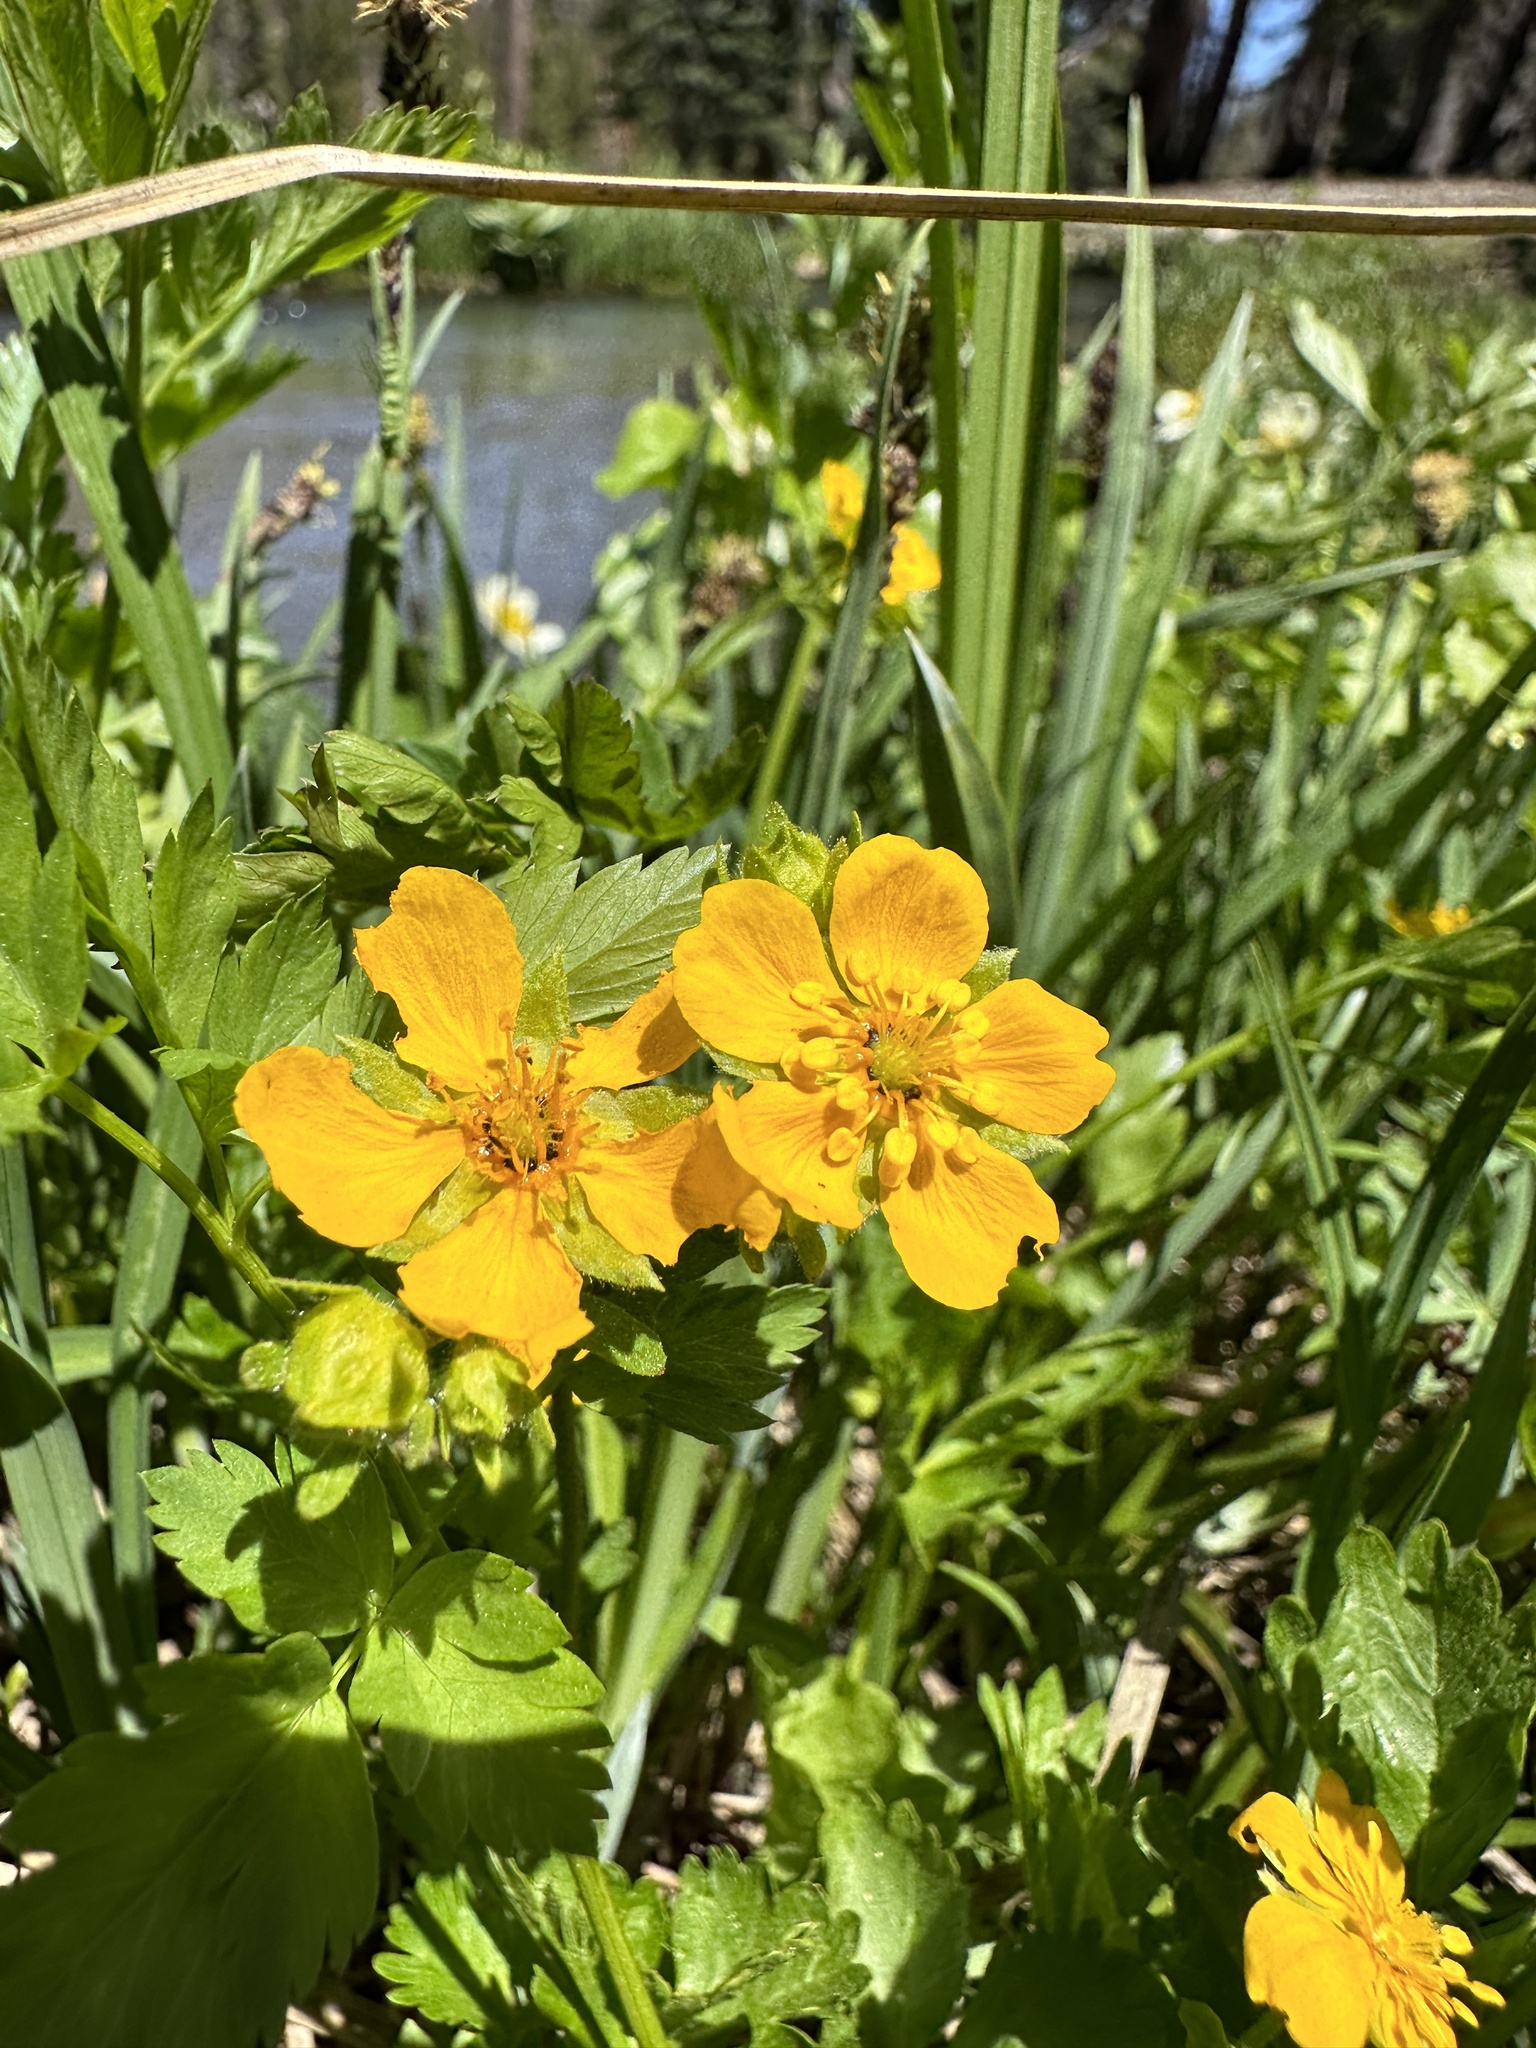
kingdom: Plantae
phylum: Tracheophyta
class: Magnoliopsida
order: Rosales
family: Rosaceae
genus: Potentilla
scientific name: Potentilla flabellifolia
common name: Mount rainier cinquefoil
